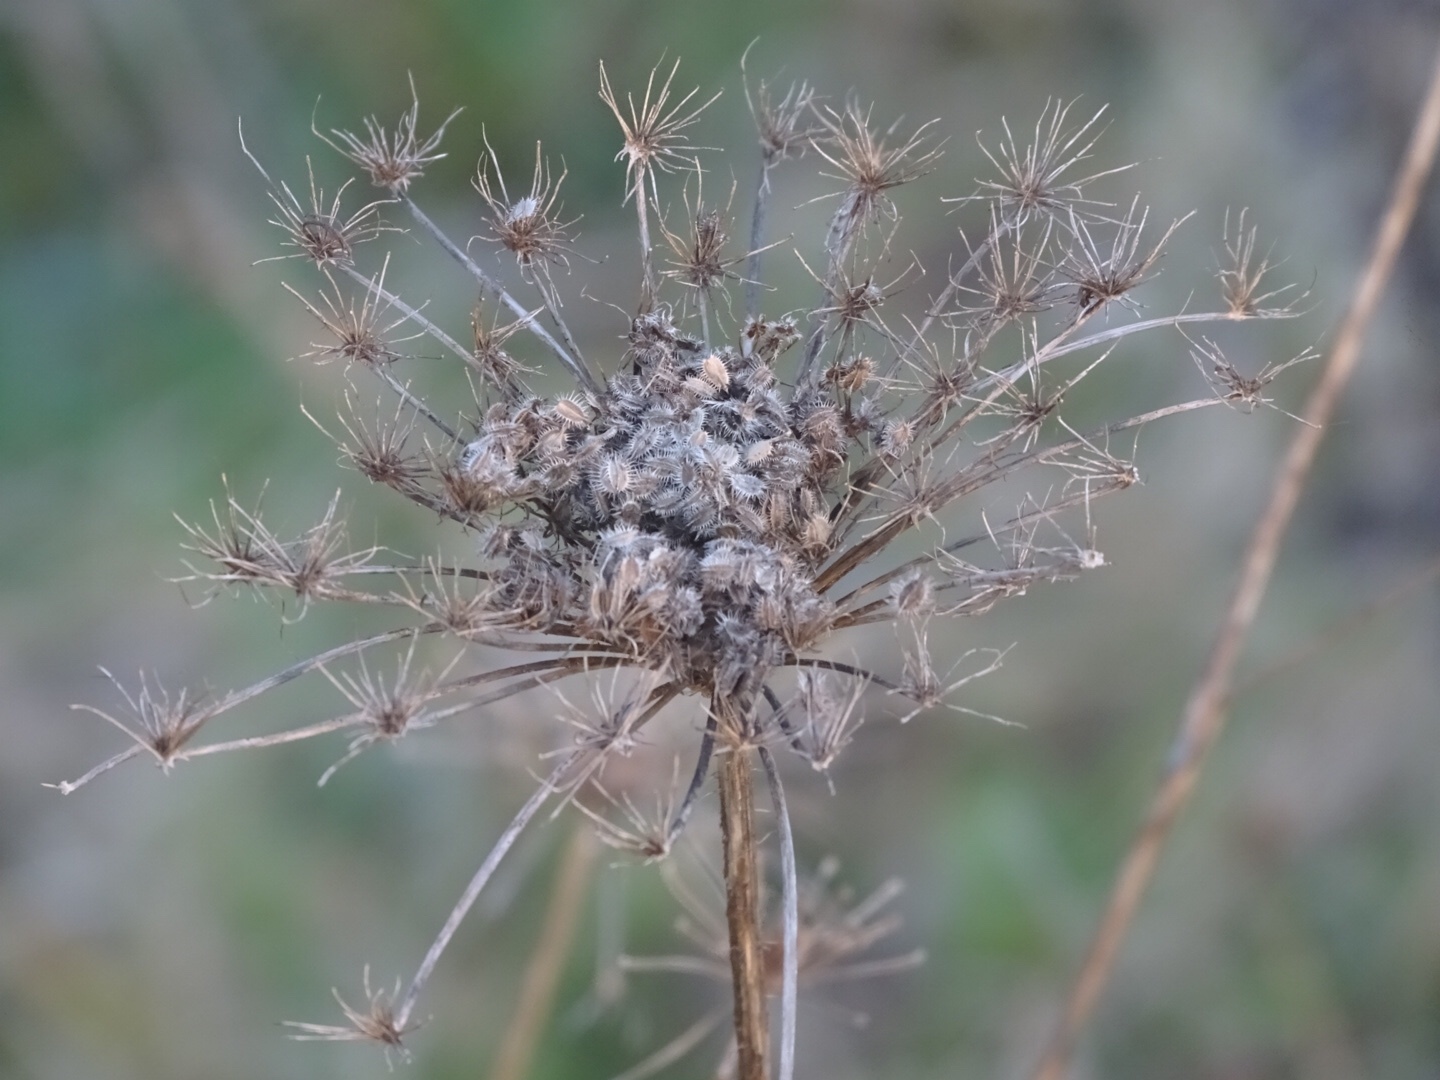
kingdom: Plantae
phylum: Tracheophyta
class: Magnoliopsida
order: Apiales
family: Apiaceae
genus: Daucus
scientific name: Daucus carota
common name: Wild carrot
